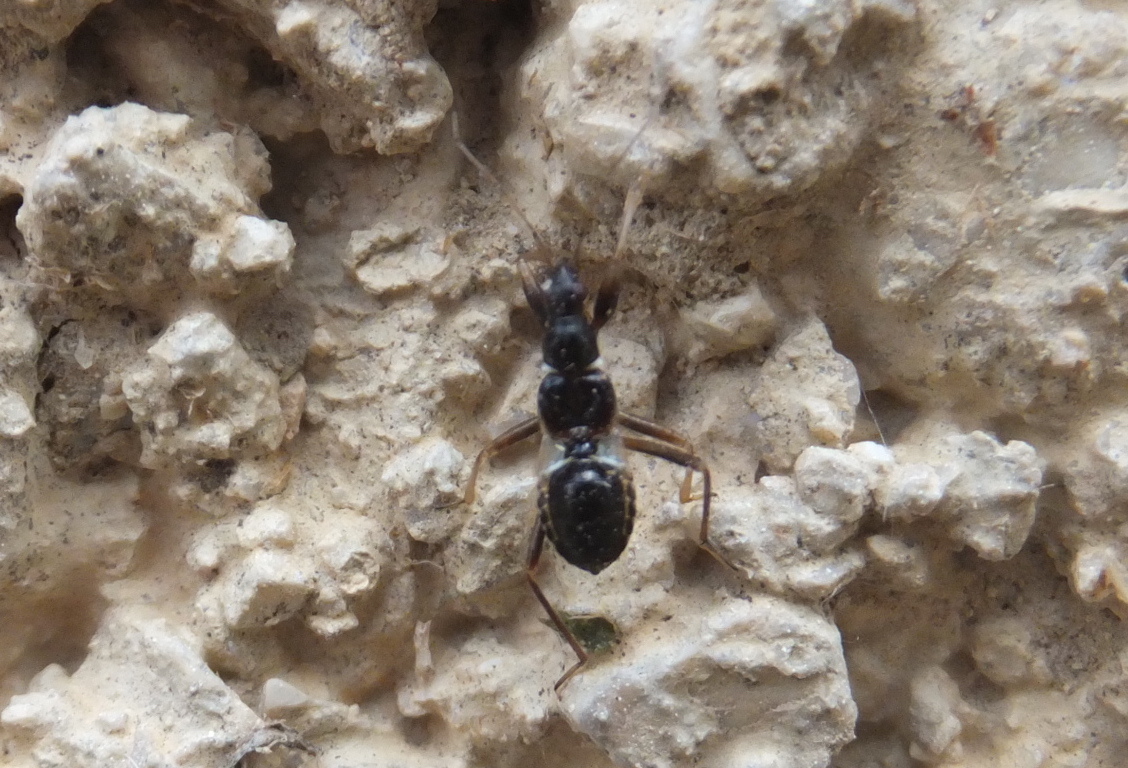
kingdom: Animalia
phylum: Arthropoda
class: Insecta
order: Hemiptera
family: Nabidae
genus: Himacerus
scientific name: Himacerus mirmicoides
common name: Ant damsel bug
